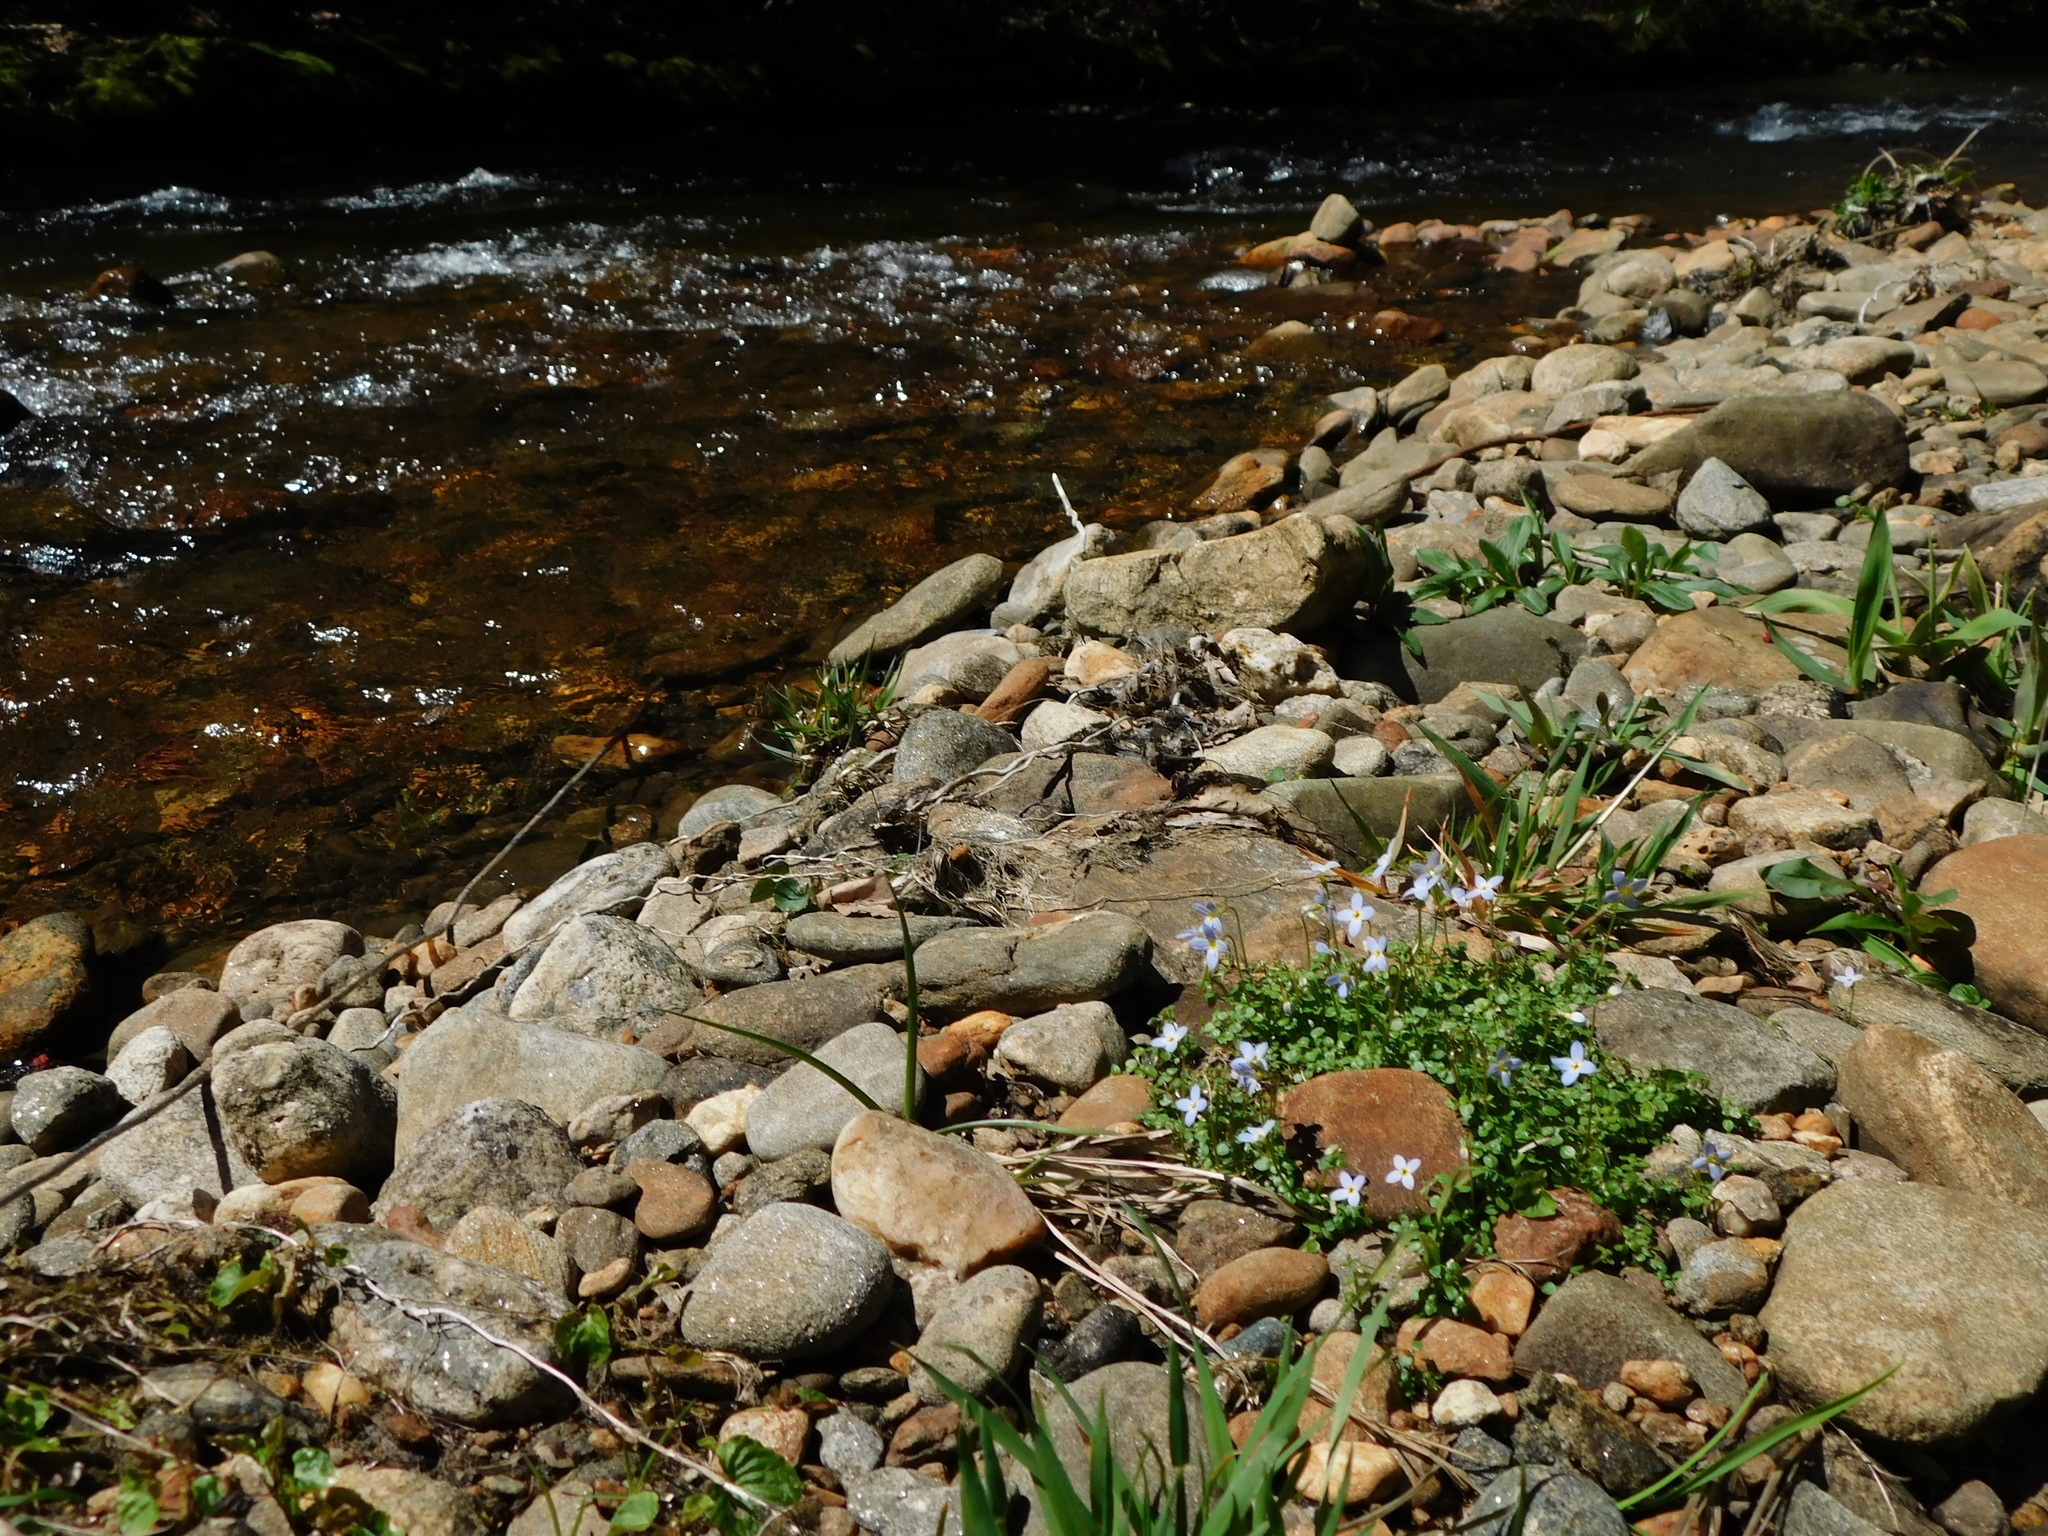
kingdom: Plantae
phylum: Tracheophyta
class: Magnoliopsida
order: Gentianales
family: Rubiaceae
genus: Houstonia
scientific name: Houstonia serpyllifolia
